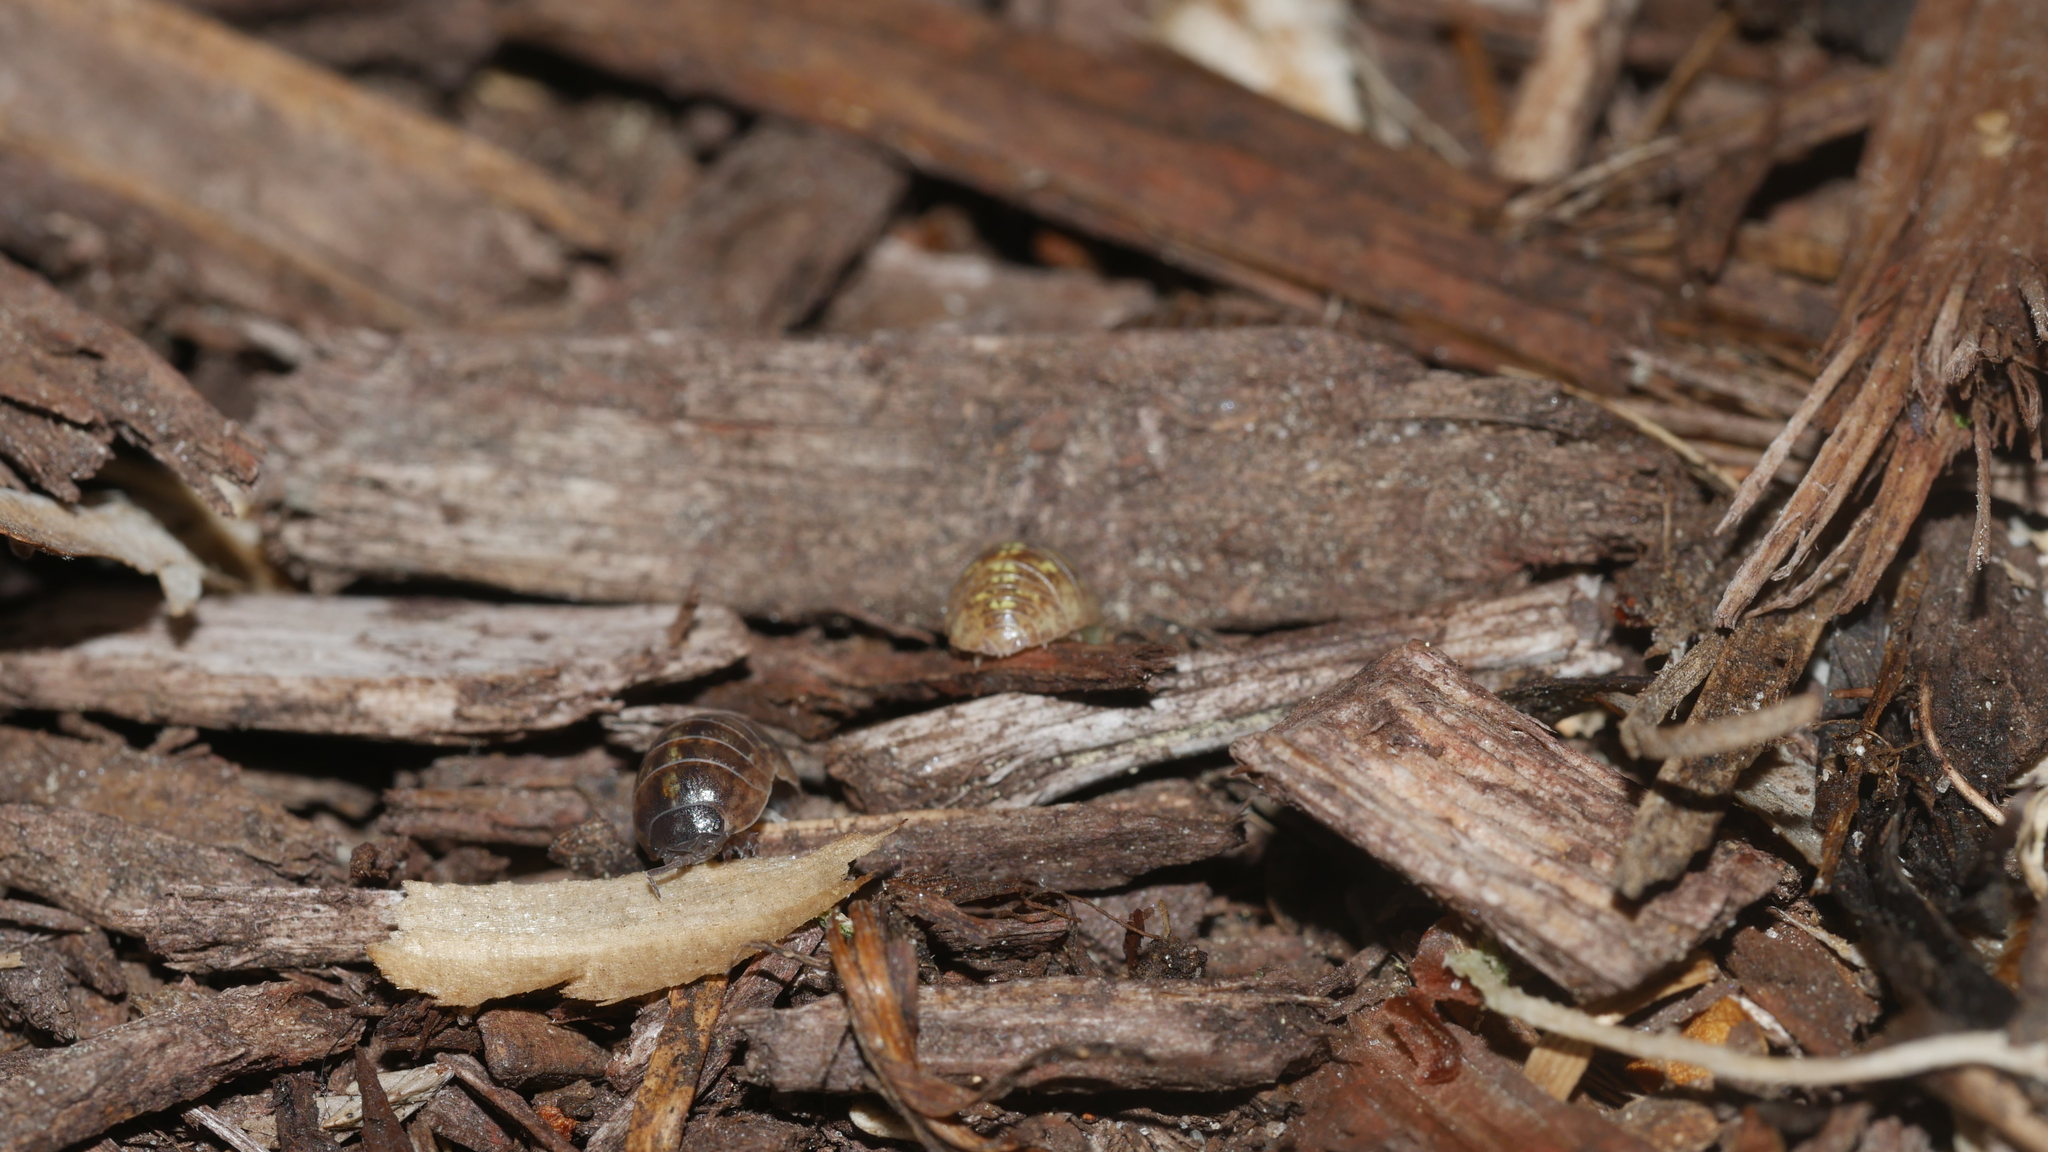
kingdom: Animalia
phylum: Arthropoda
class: Malacostraca
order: Isopoda
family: Armadillidiidae
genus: Armadillidium
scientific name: Armadillidium vulgare
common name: Common pill woodlouse
